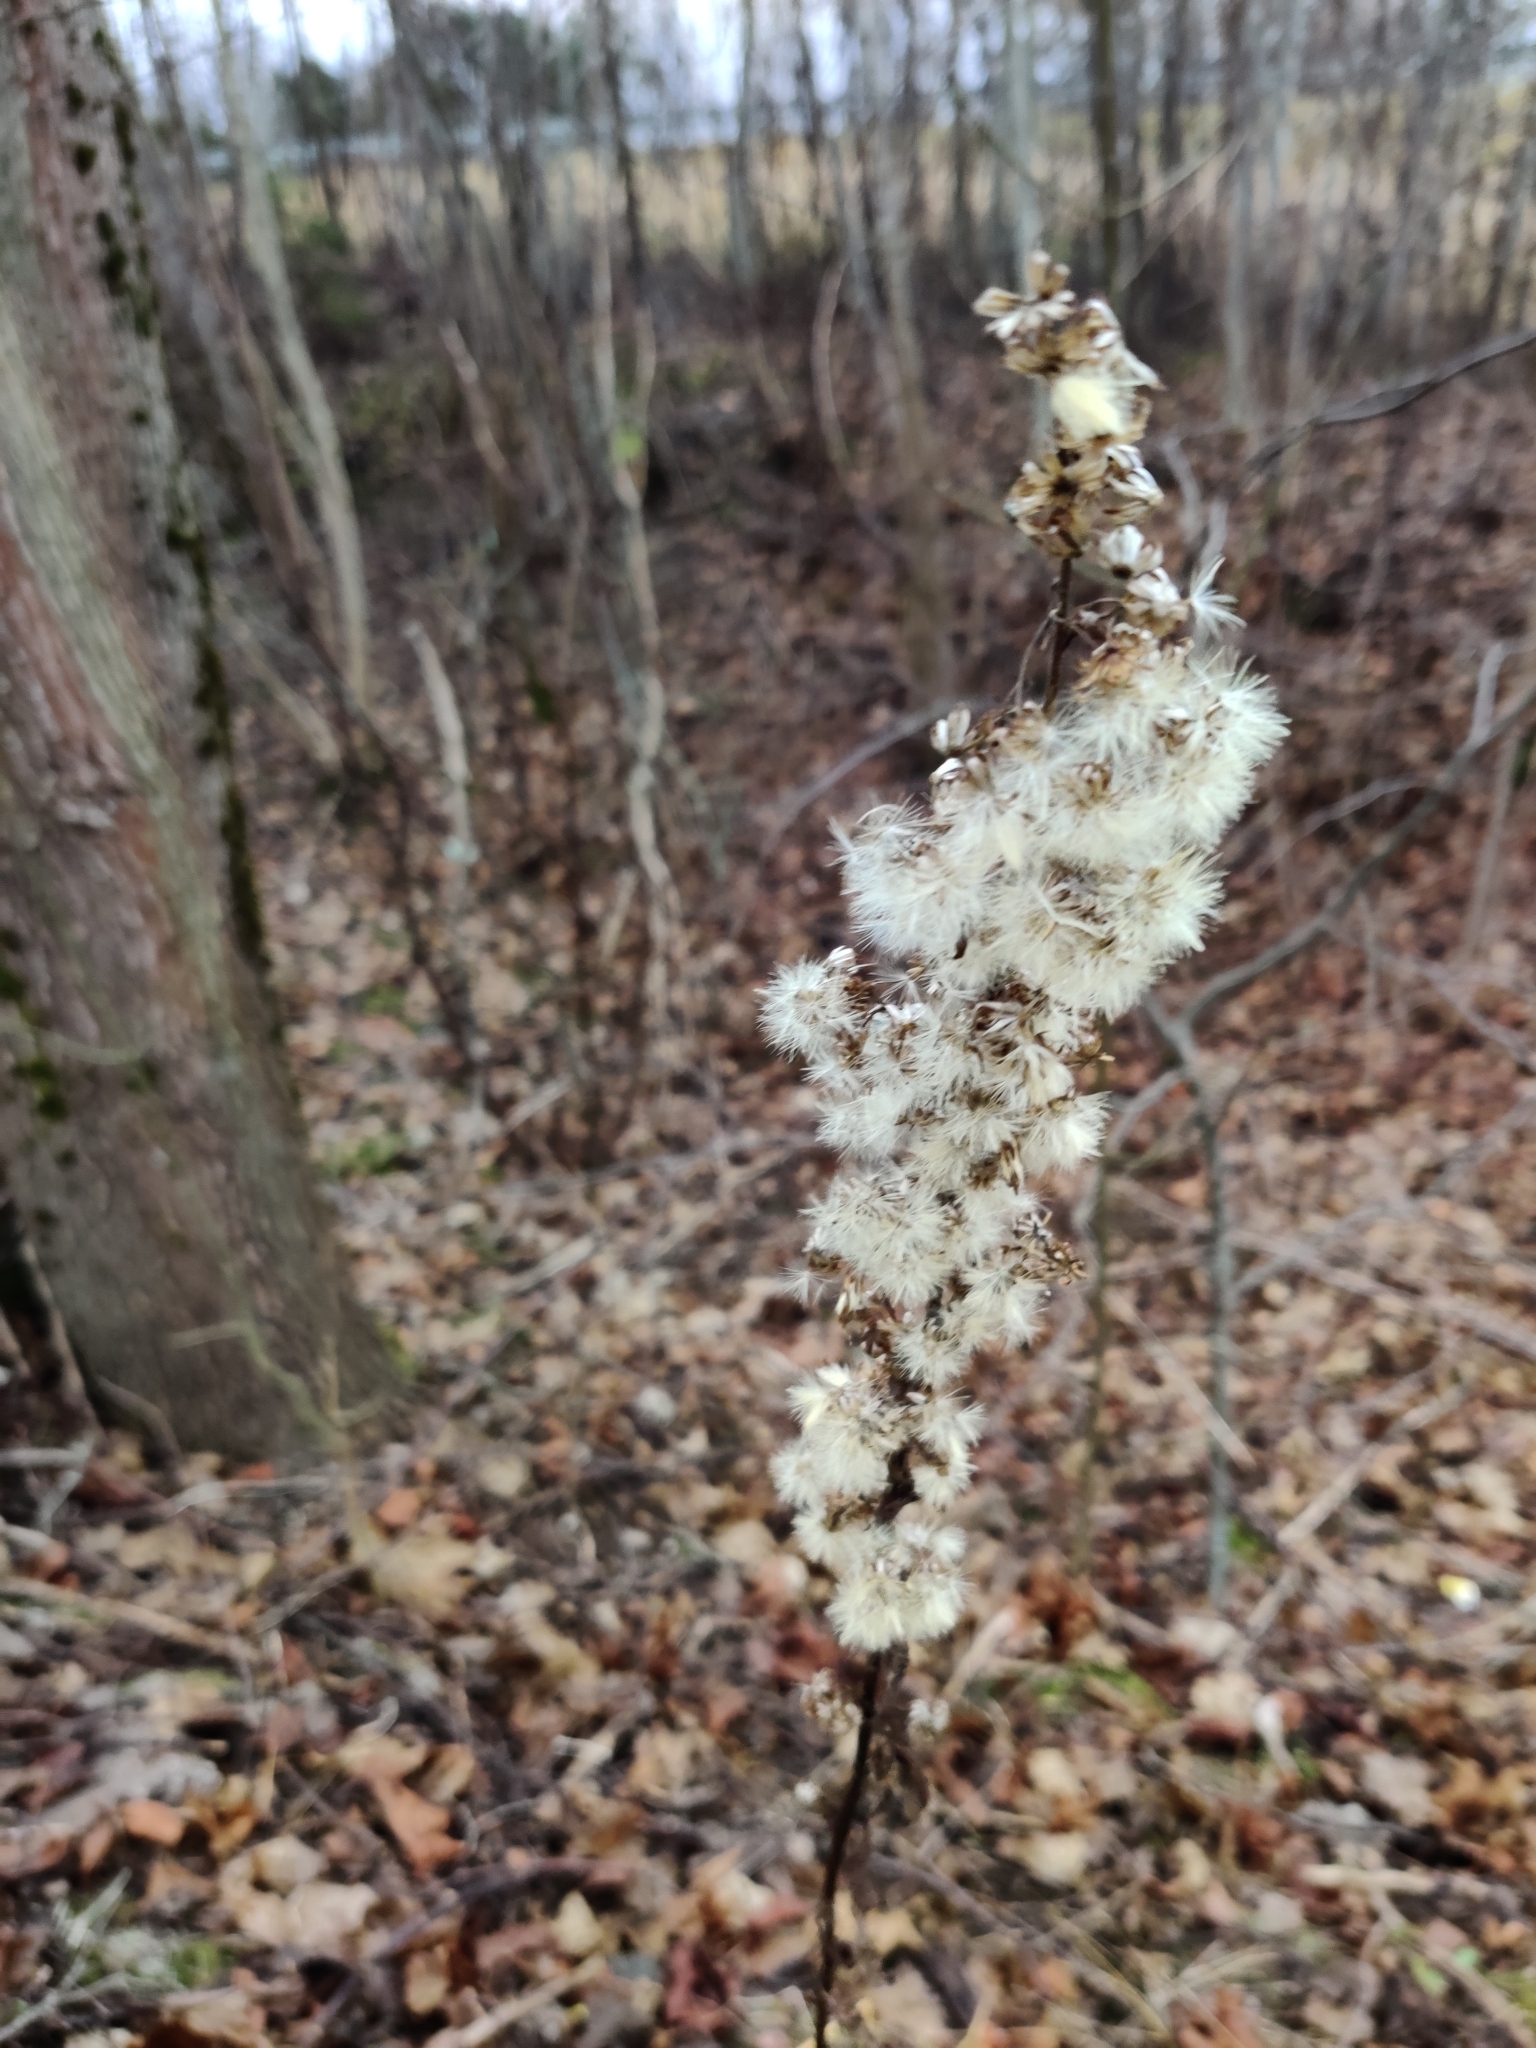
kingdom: Plantae
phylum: Tracheophyta
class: Magnoliopsida
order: Asterales
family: Asteraceae
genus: Solidago
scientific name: Solidago virgaurea
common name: Goldenrod
